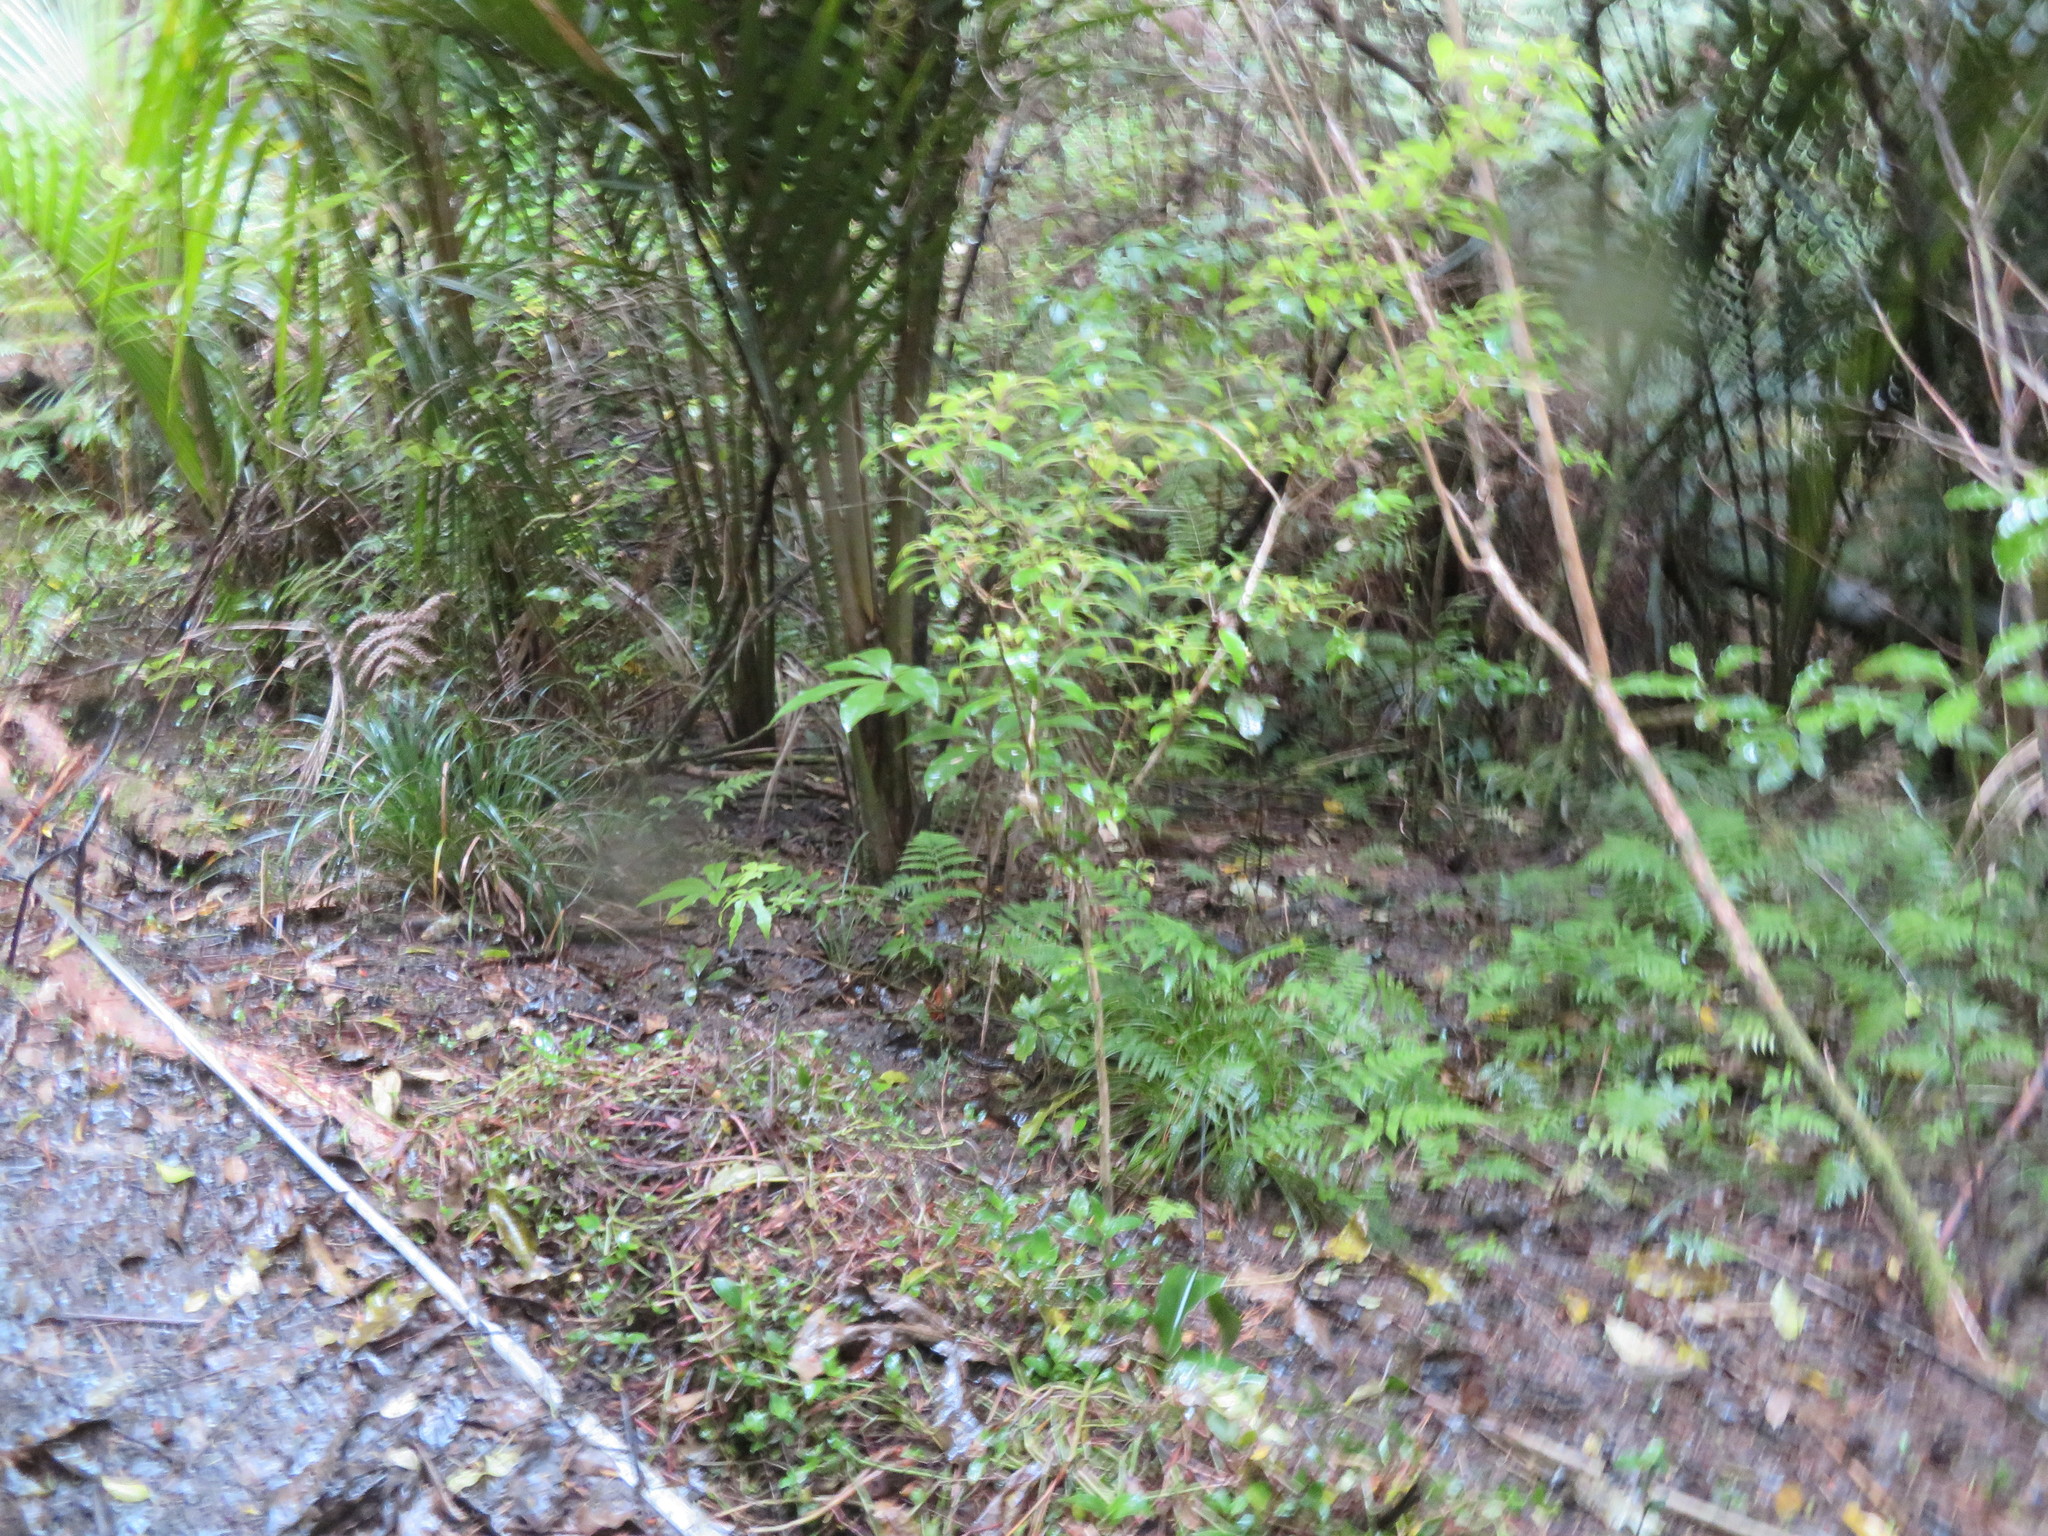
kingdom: Plantae
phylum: Tracheophyta
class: Liliopsida
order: Commelinales
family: Commelinaceae
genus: Tradescantia
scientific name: Tradescantia fluminensis
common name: Wandering-jew
